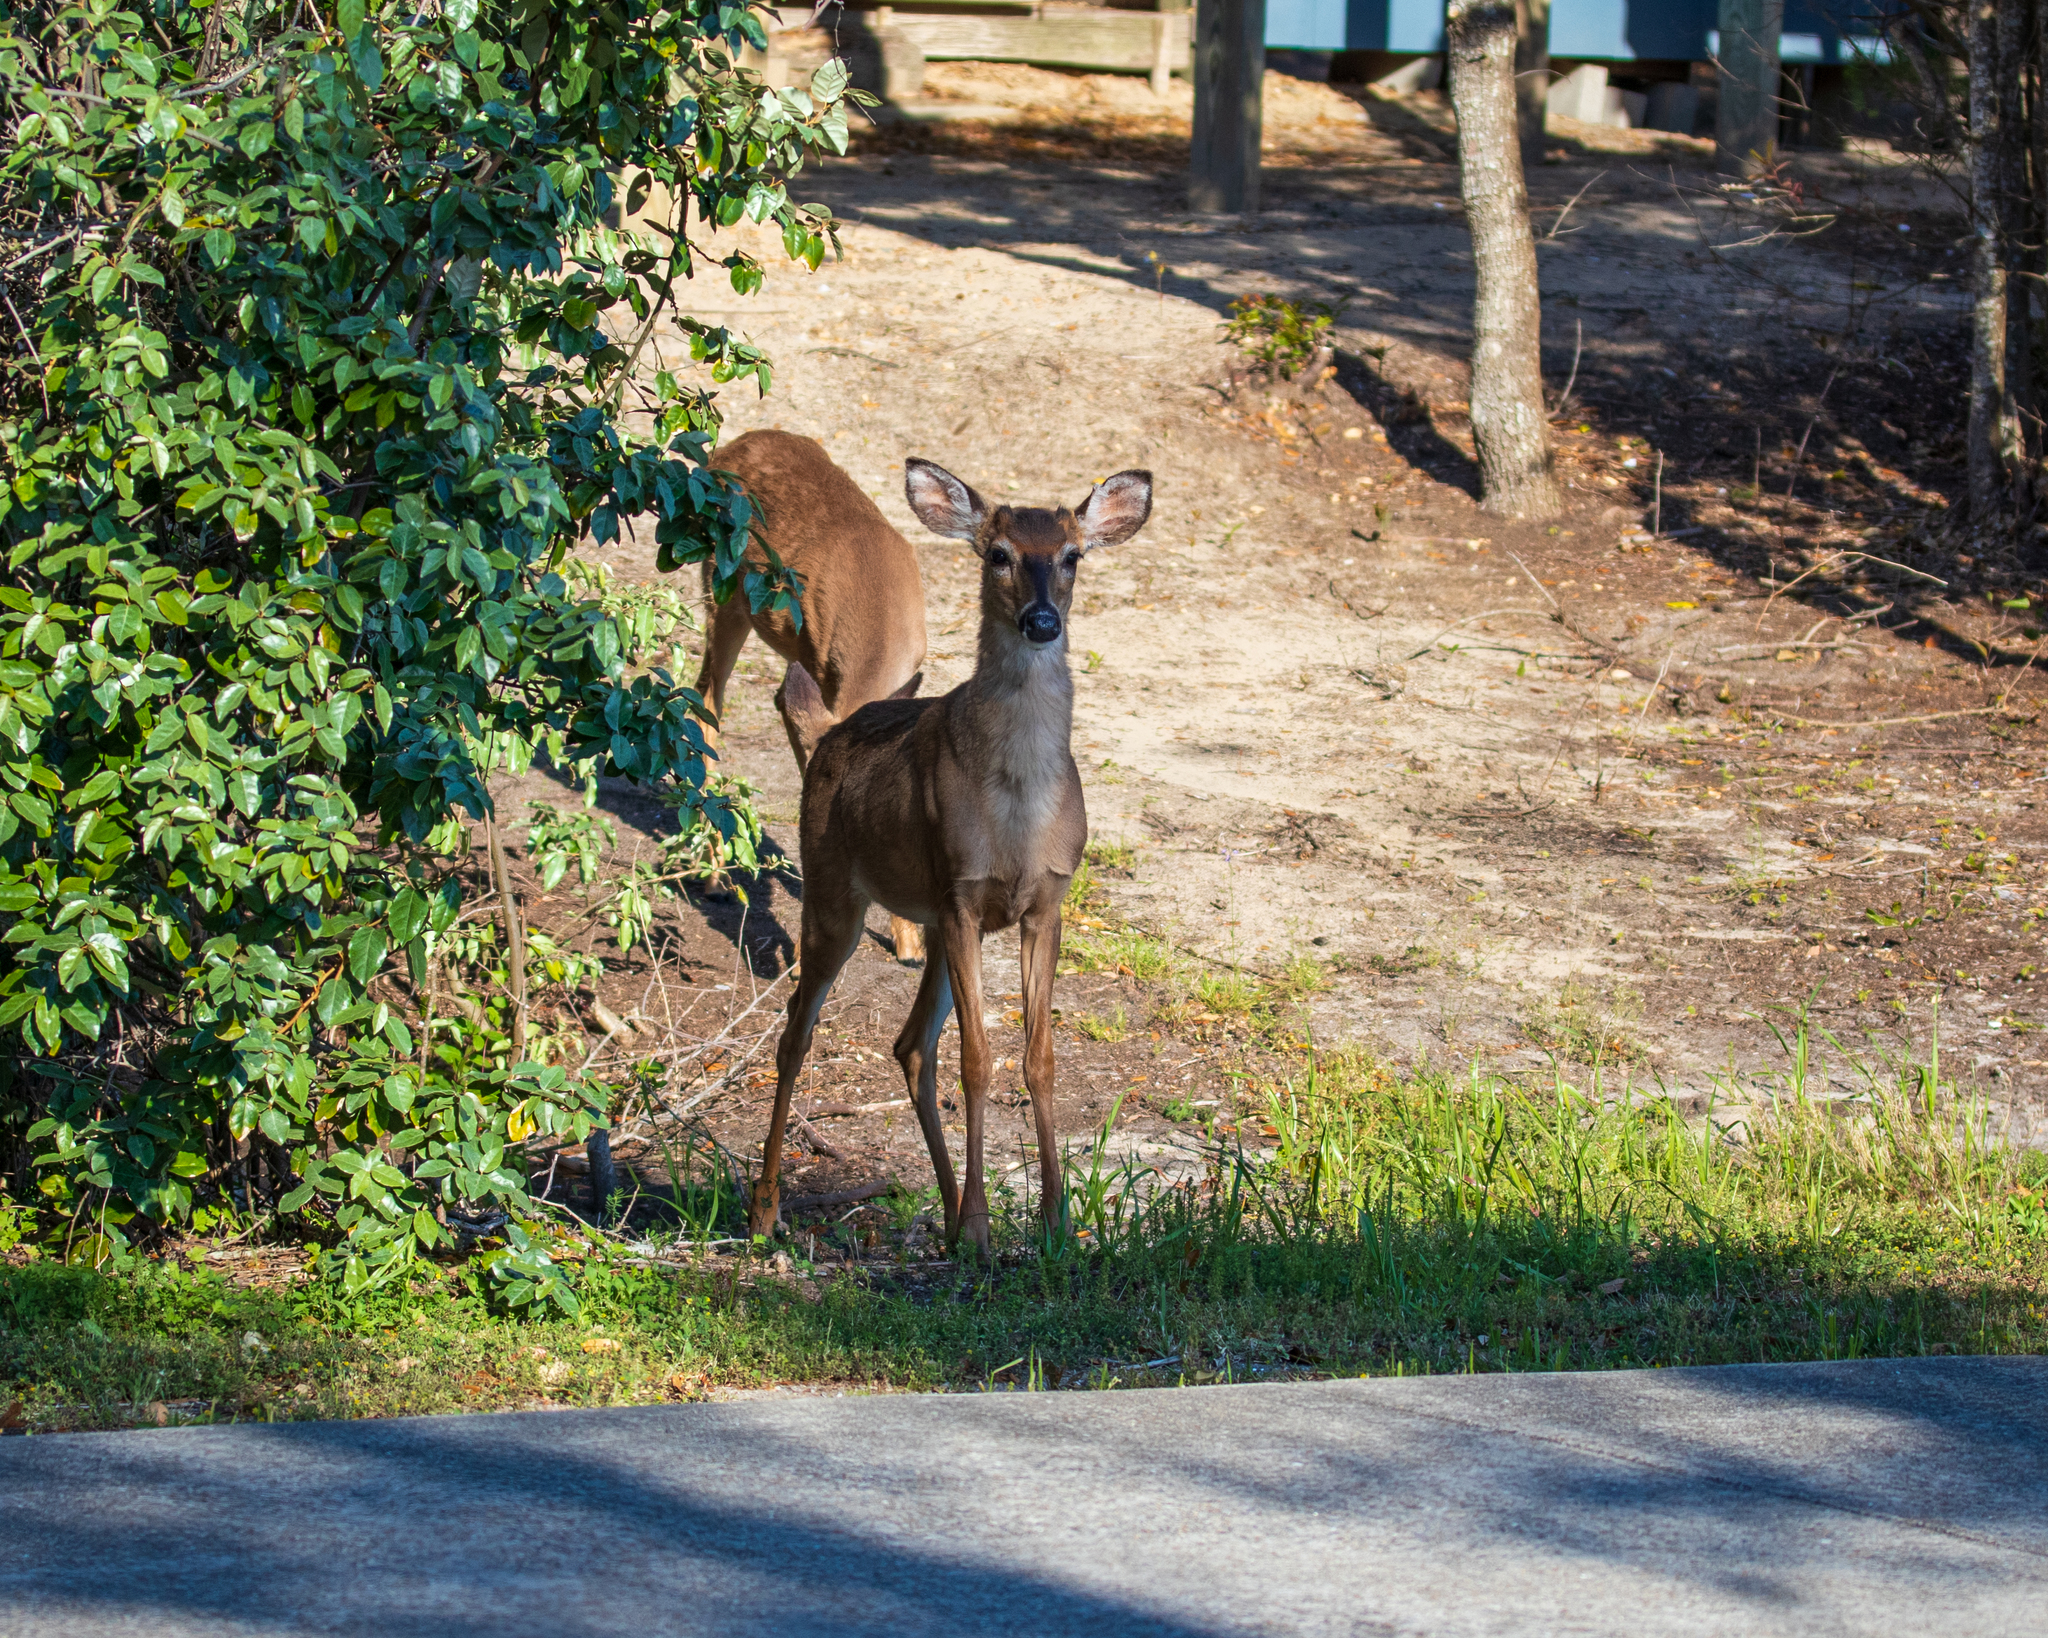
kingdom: Animalia
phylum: Chordata
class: Mammalia
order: Artiodactyla
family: Cervidae
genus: Odocoileus
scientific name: Odocoileus virginianus
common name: White-tailed deer
